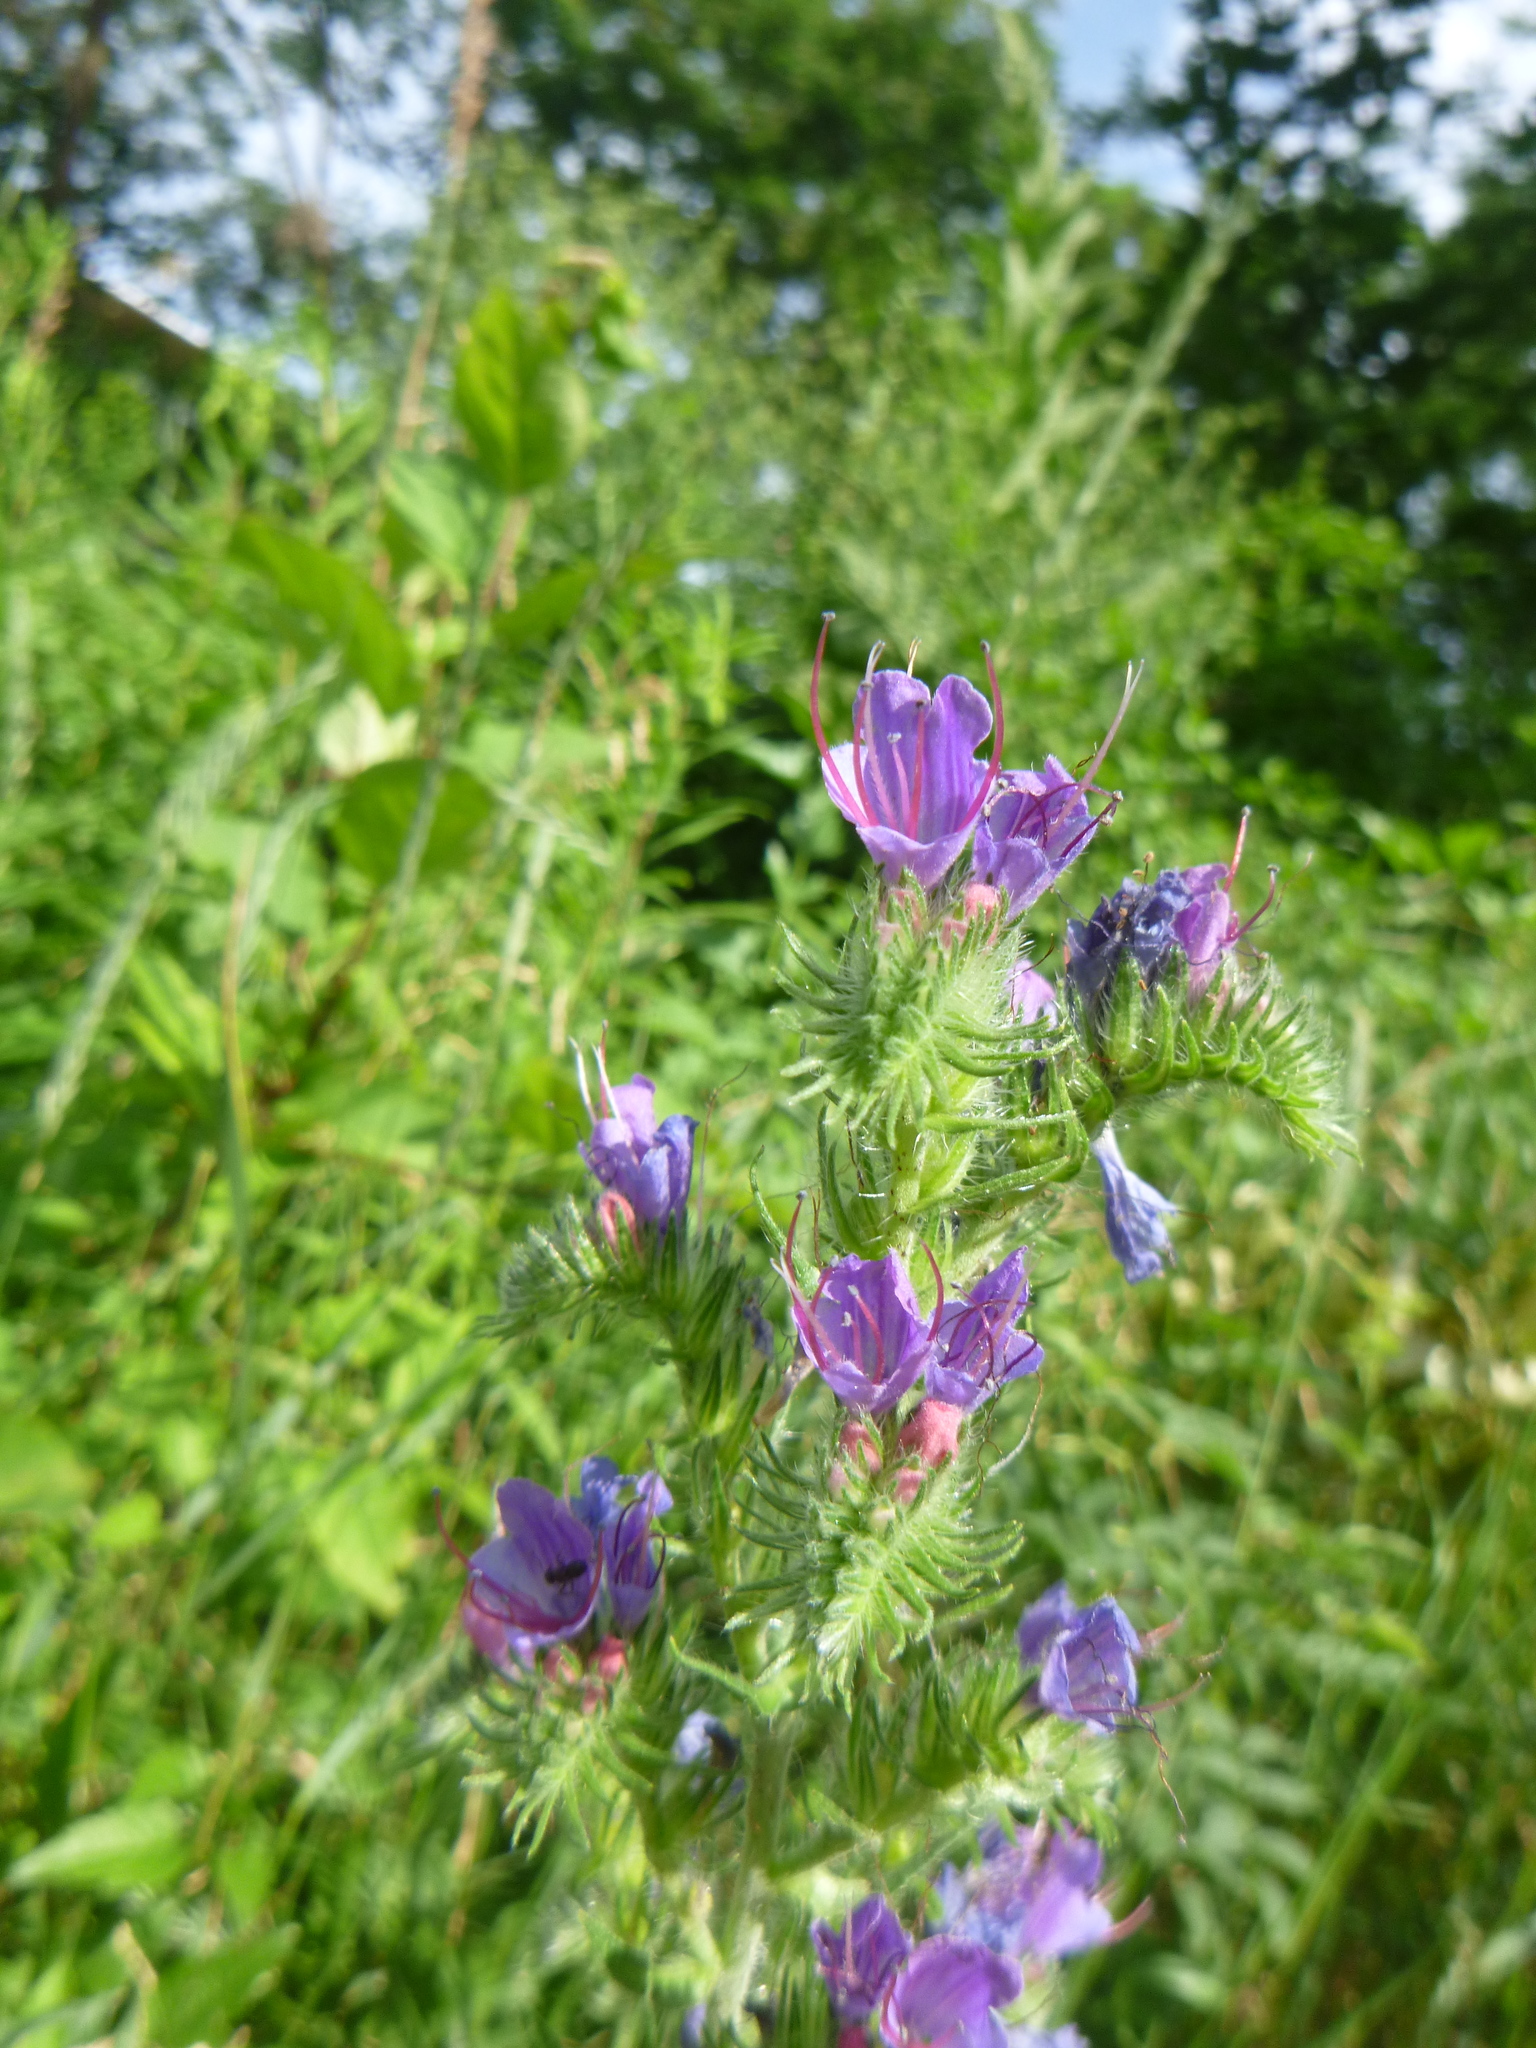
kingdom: Plantae
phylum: Tracheophyta
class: Magnoliopsida
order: Boraginales
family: Boraginaceae
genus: Echium
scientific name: Echium vulgare
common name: Common viper's bugloss
